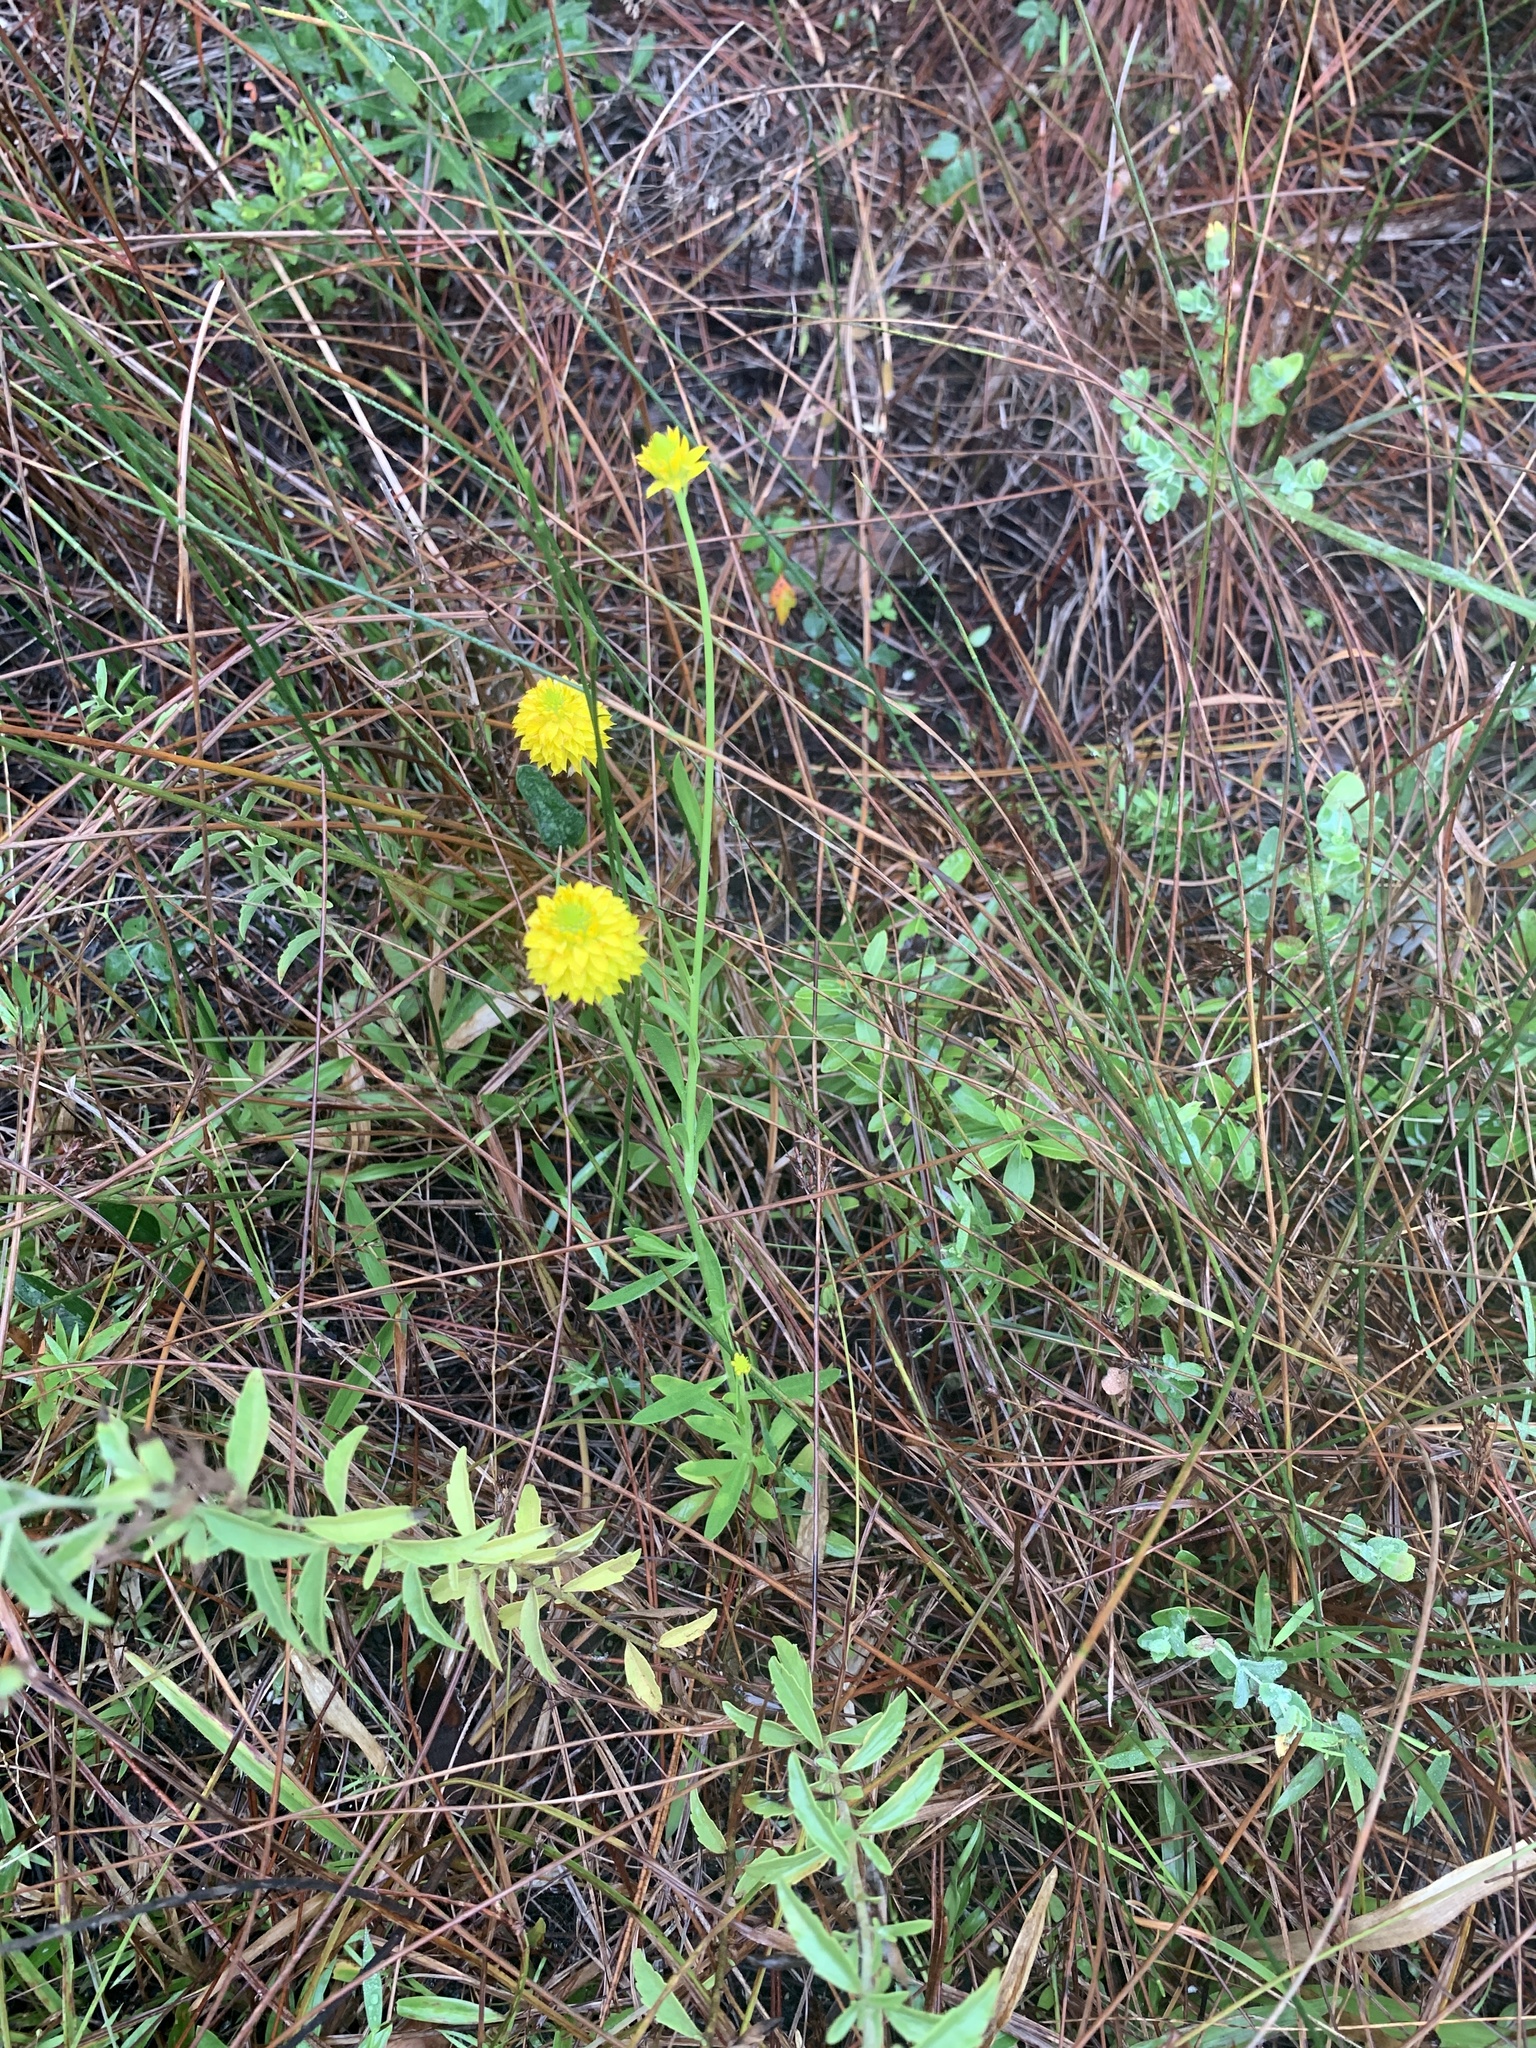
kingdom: Plantae
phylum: Tracheophyta
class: Magnoliopsida
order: Fabales
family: Polygalaceae
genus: Polygala
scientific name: Polygala rugelii
